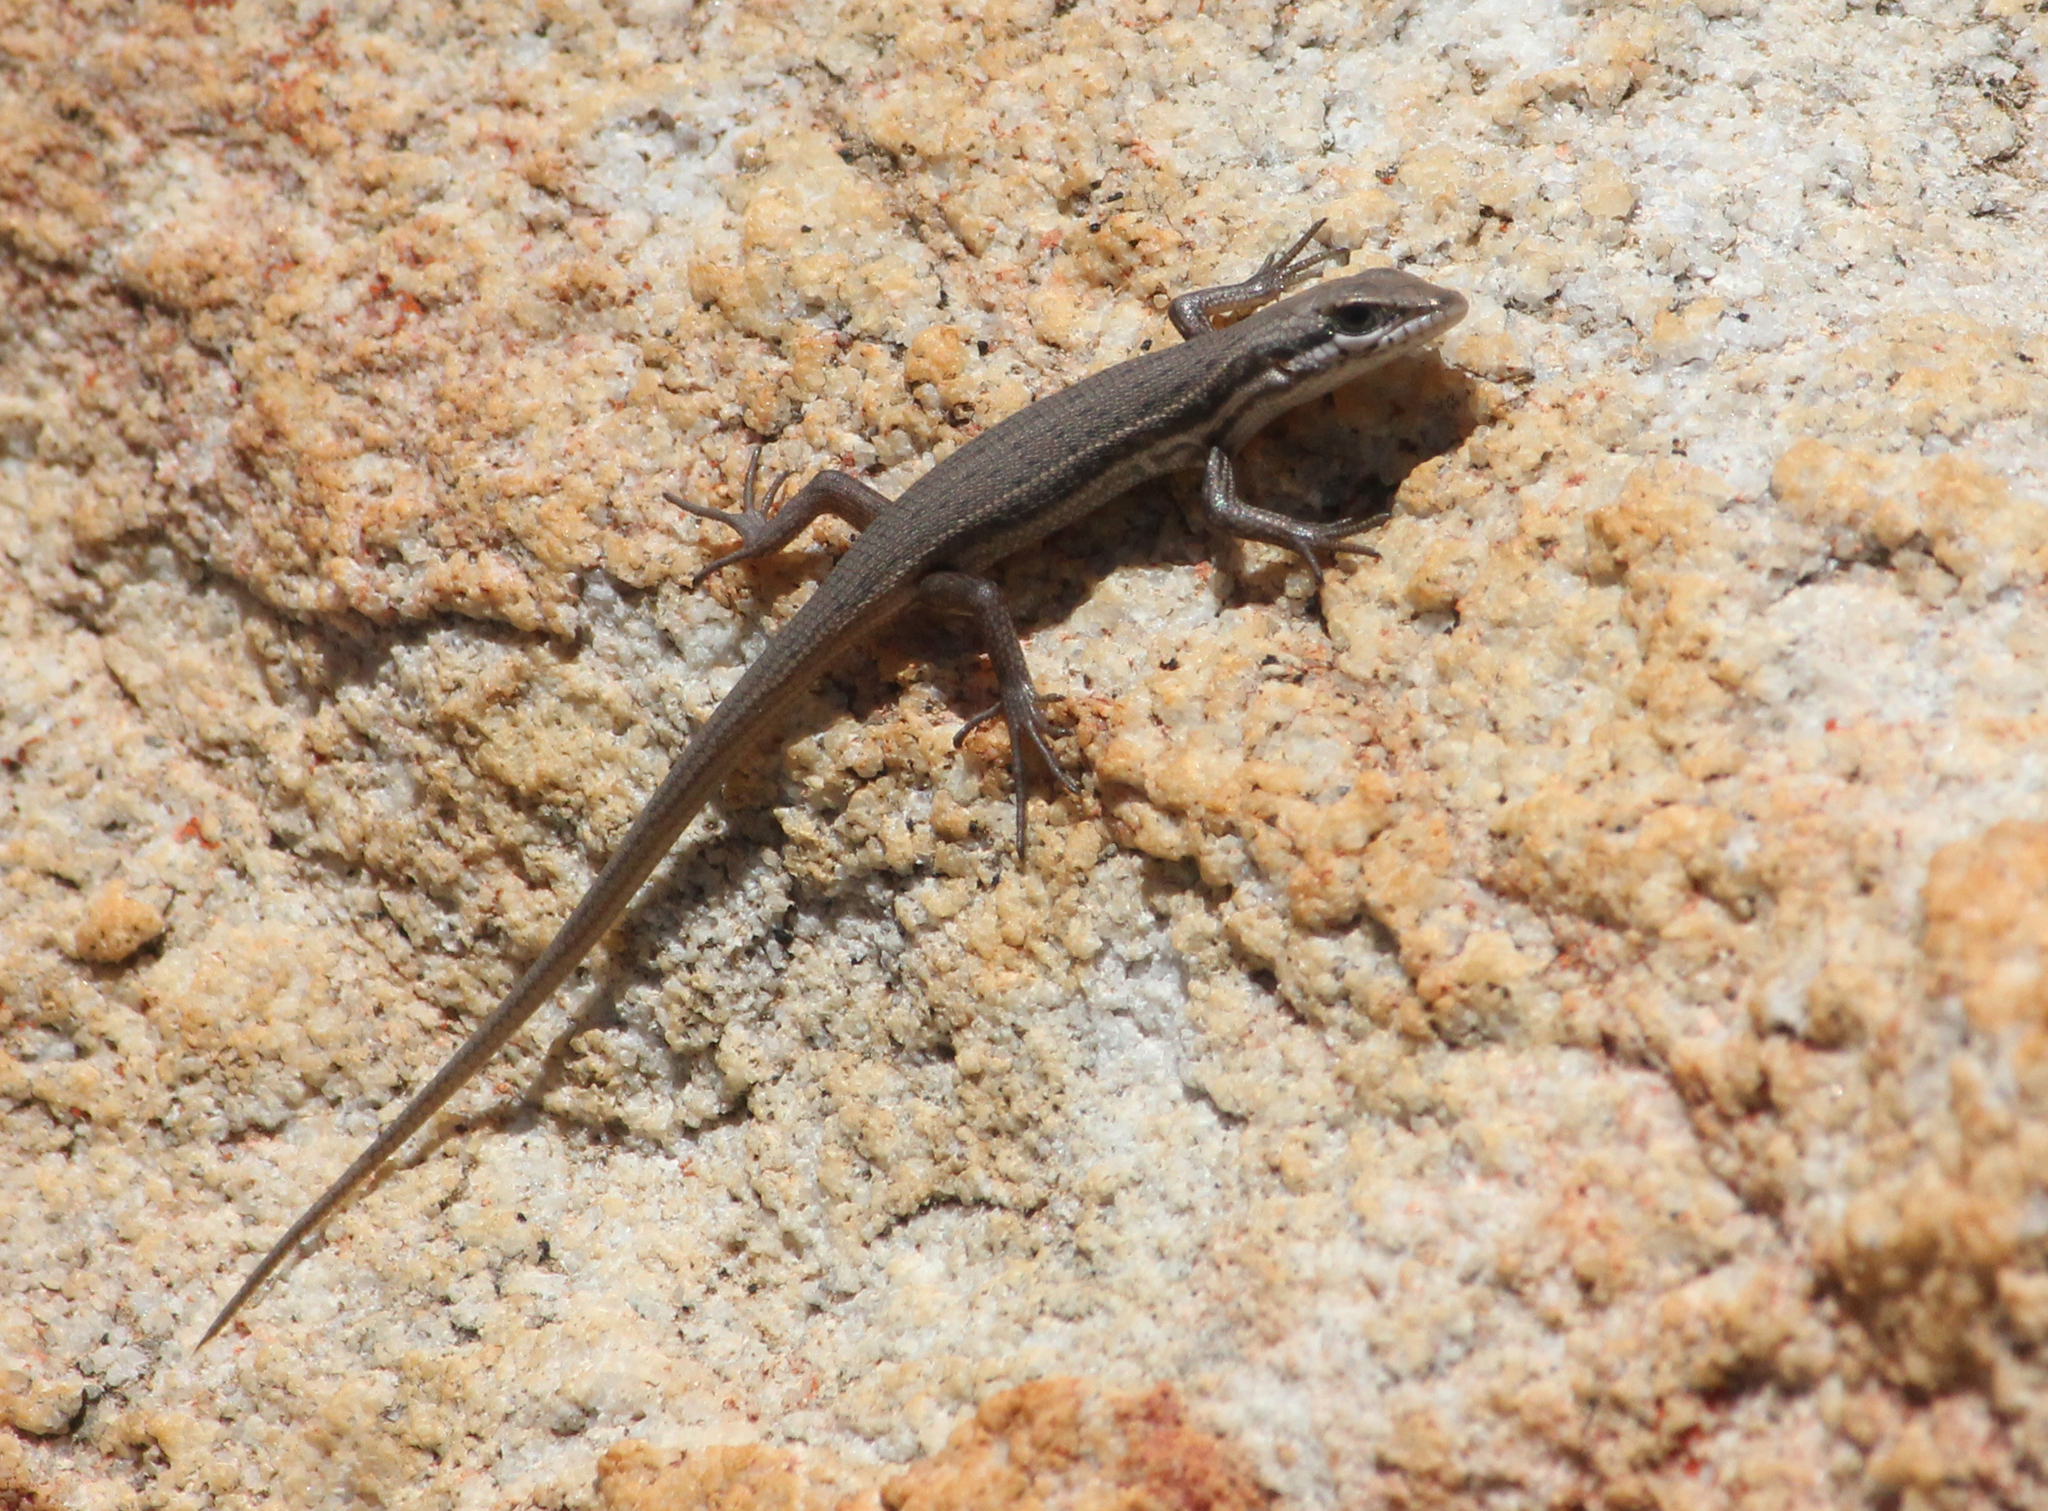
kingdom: Animalia
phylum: Chordata
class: Squamata
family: Scincidae
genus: Trachylepis
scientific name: Trachylepis variegata
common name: Variegated skink
